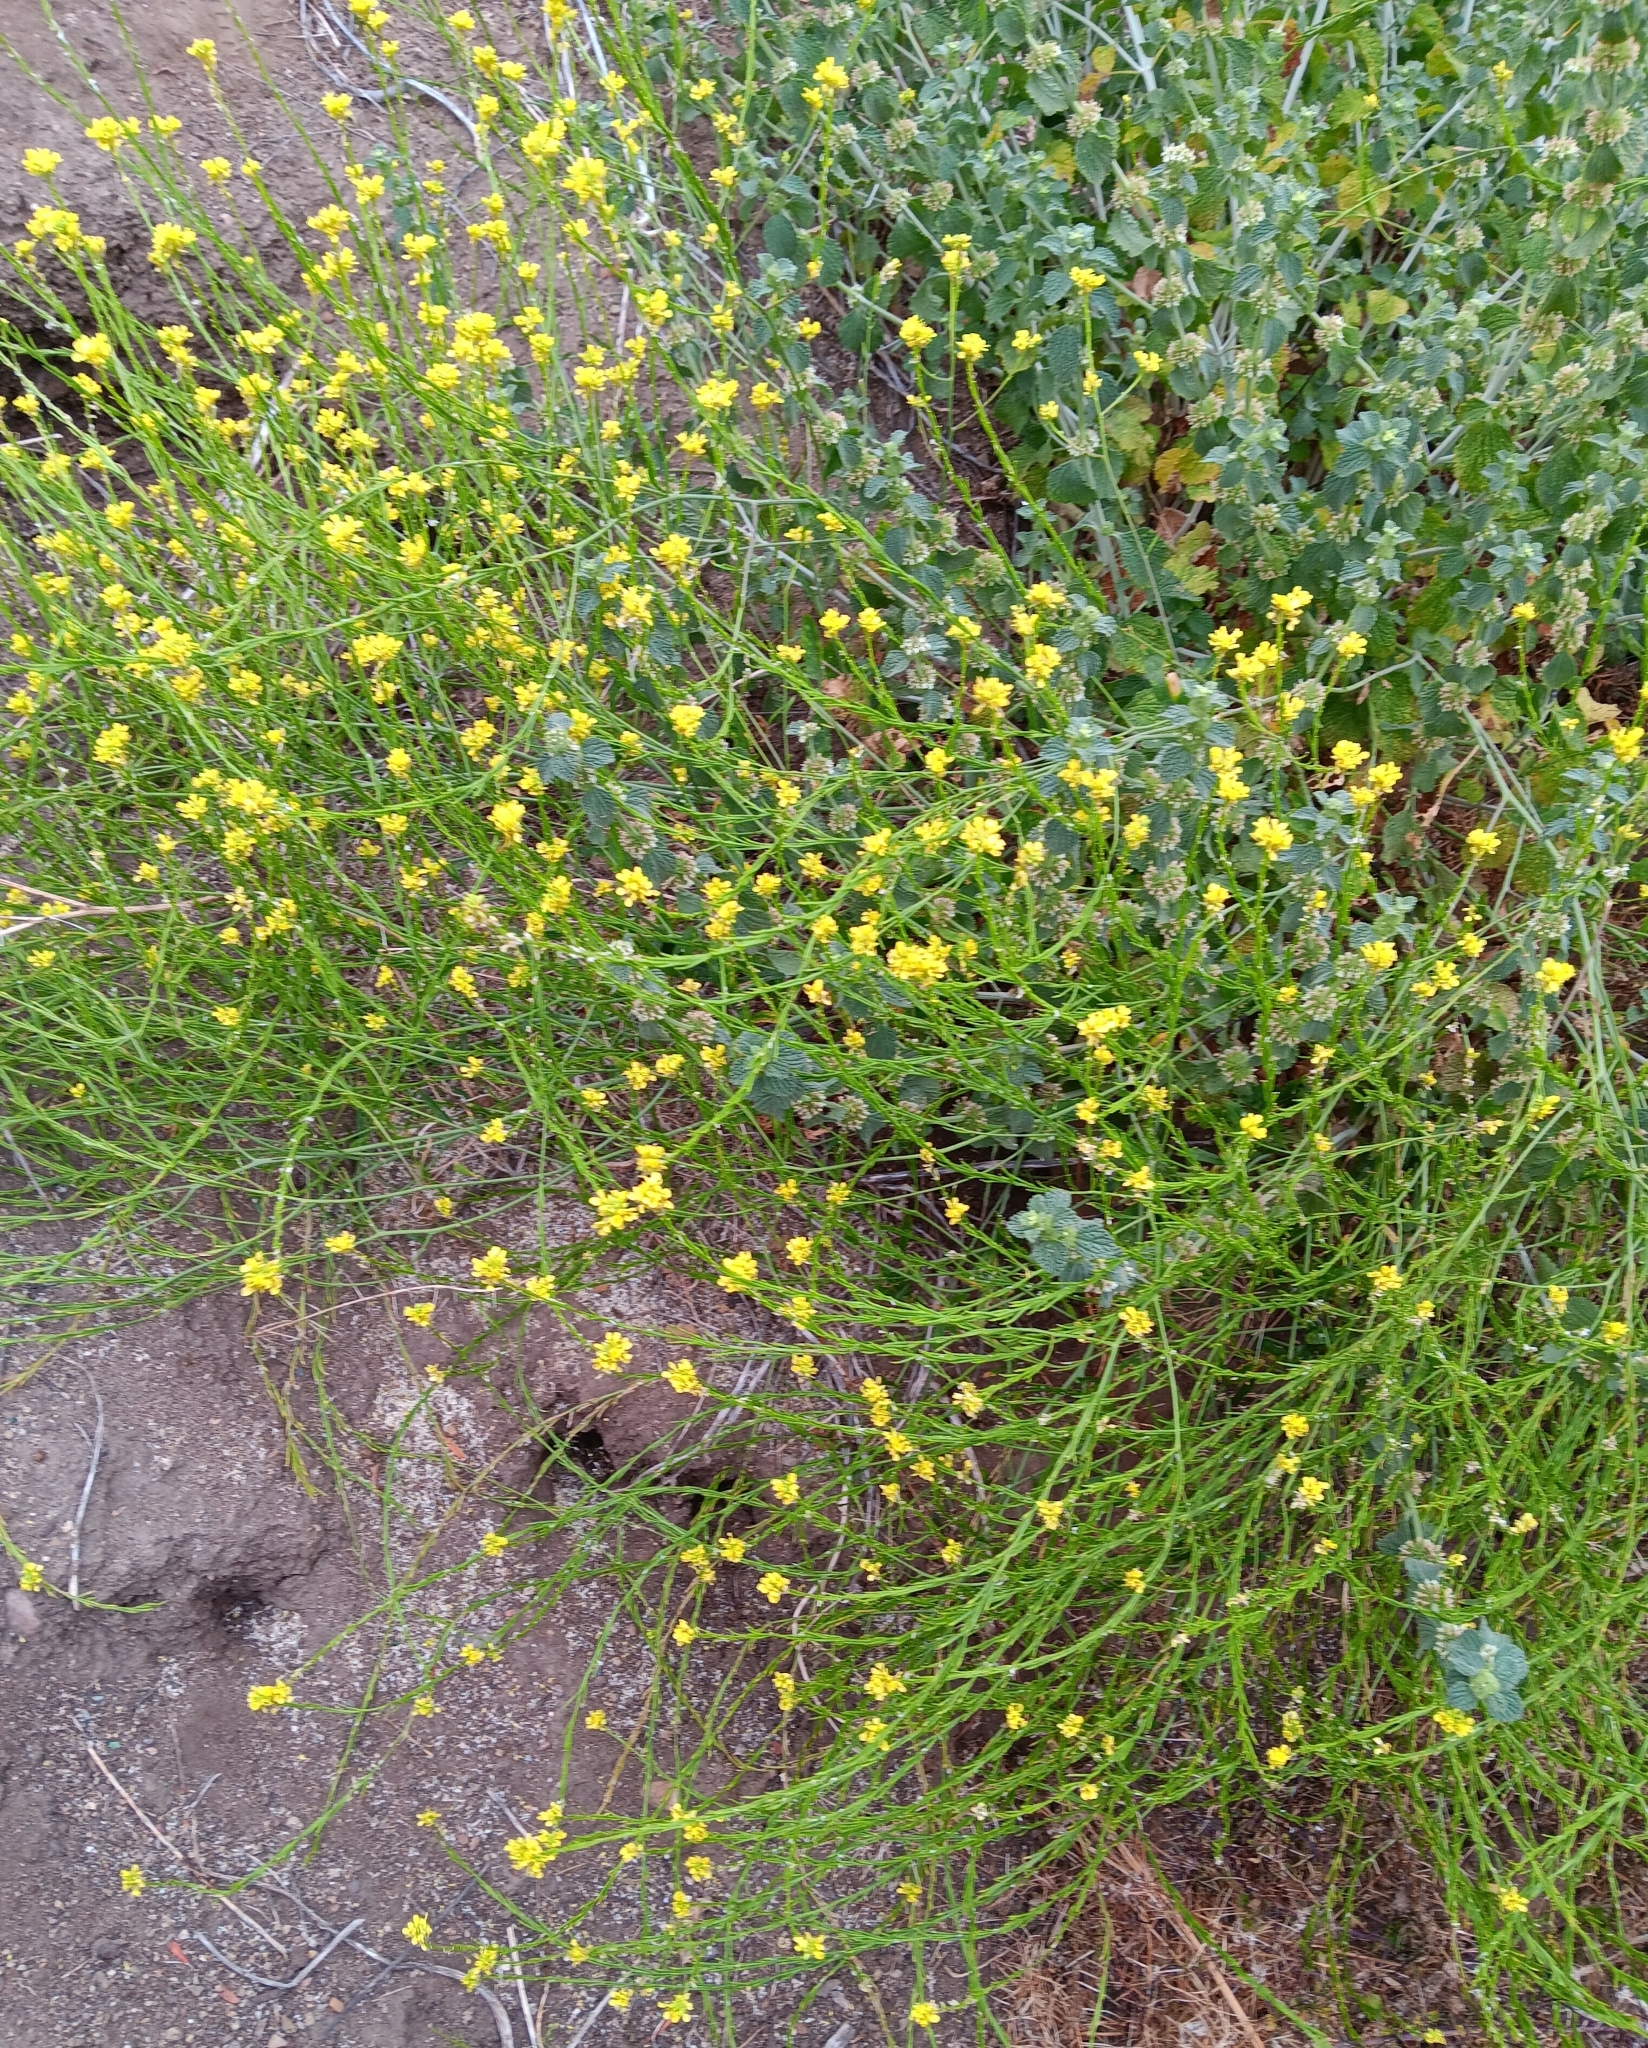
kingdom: Plantae
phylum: Tracheophyta
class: Magnoliopsida
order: Brassicales
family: Brassicaceae
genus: Hirschfeldia
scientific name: Hirschfeldia incana
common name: Hoary mustard
